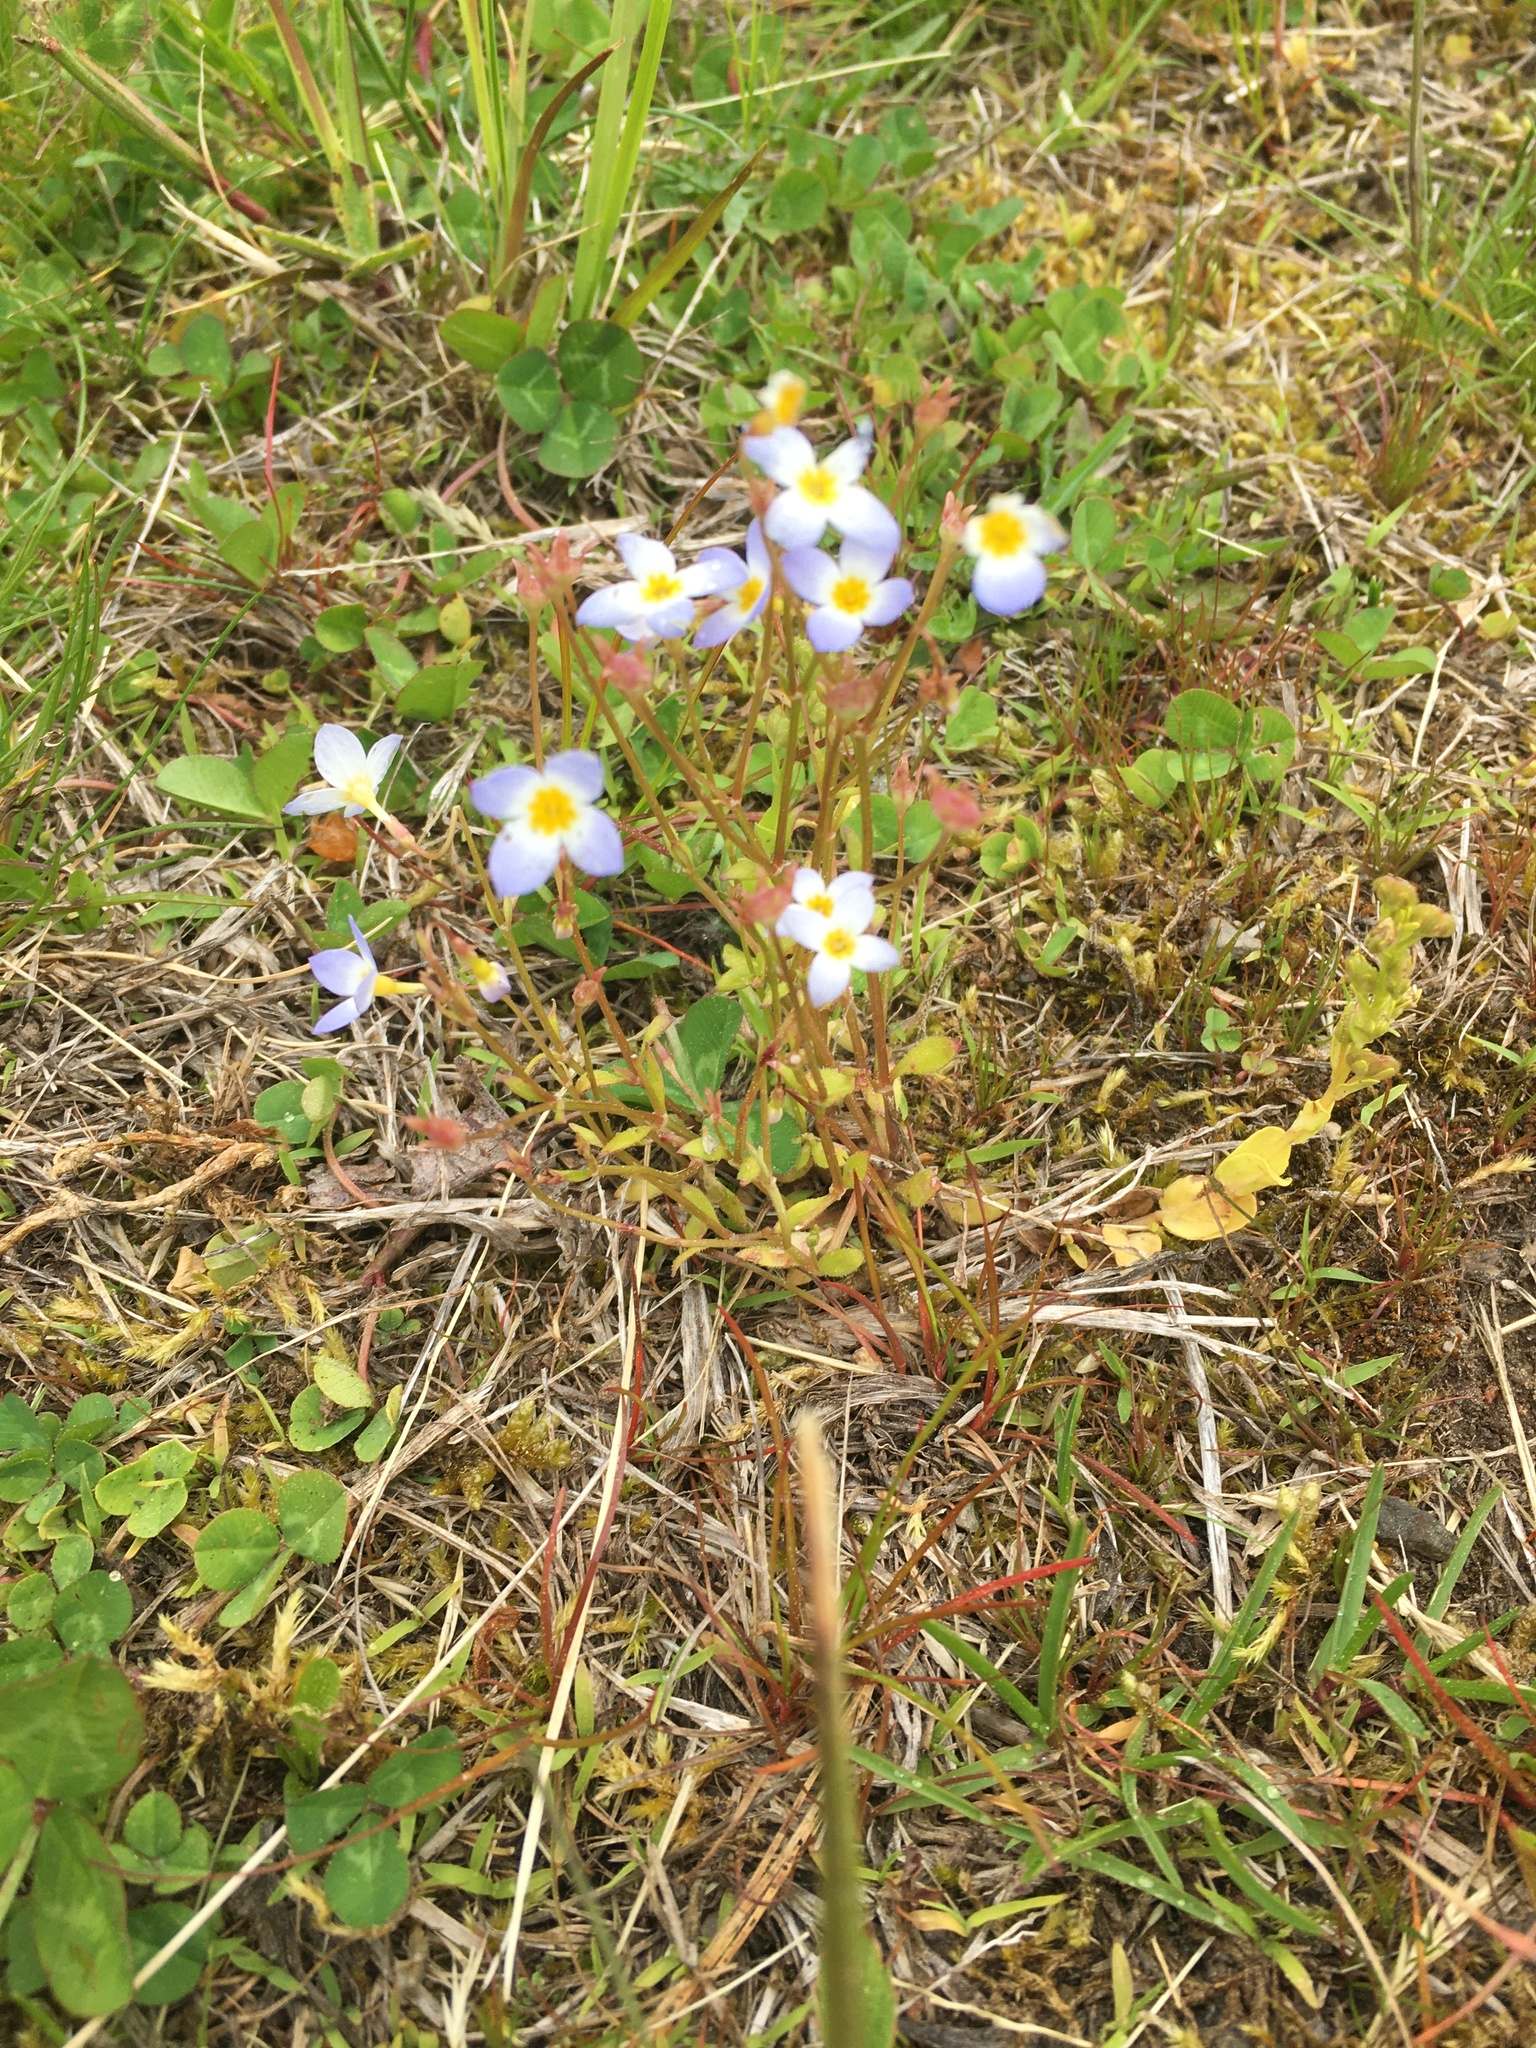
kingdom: Plantae
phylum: Tracheophyta
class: Magnoliopsida
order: Gentianales
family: Rubiaceae
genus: Houstonia
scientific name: Houstonia caerulea
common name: Bluets
